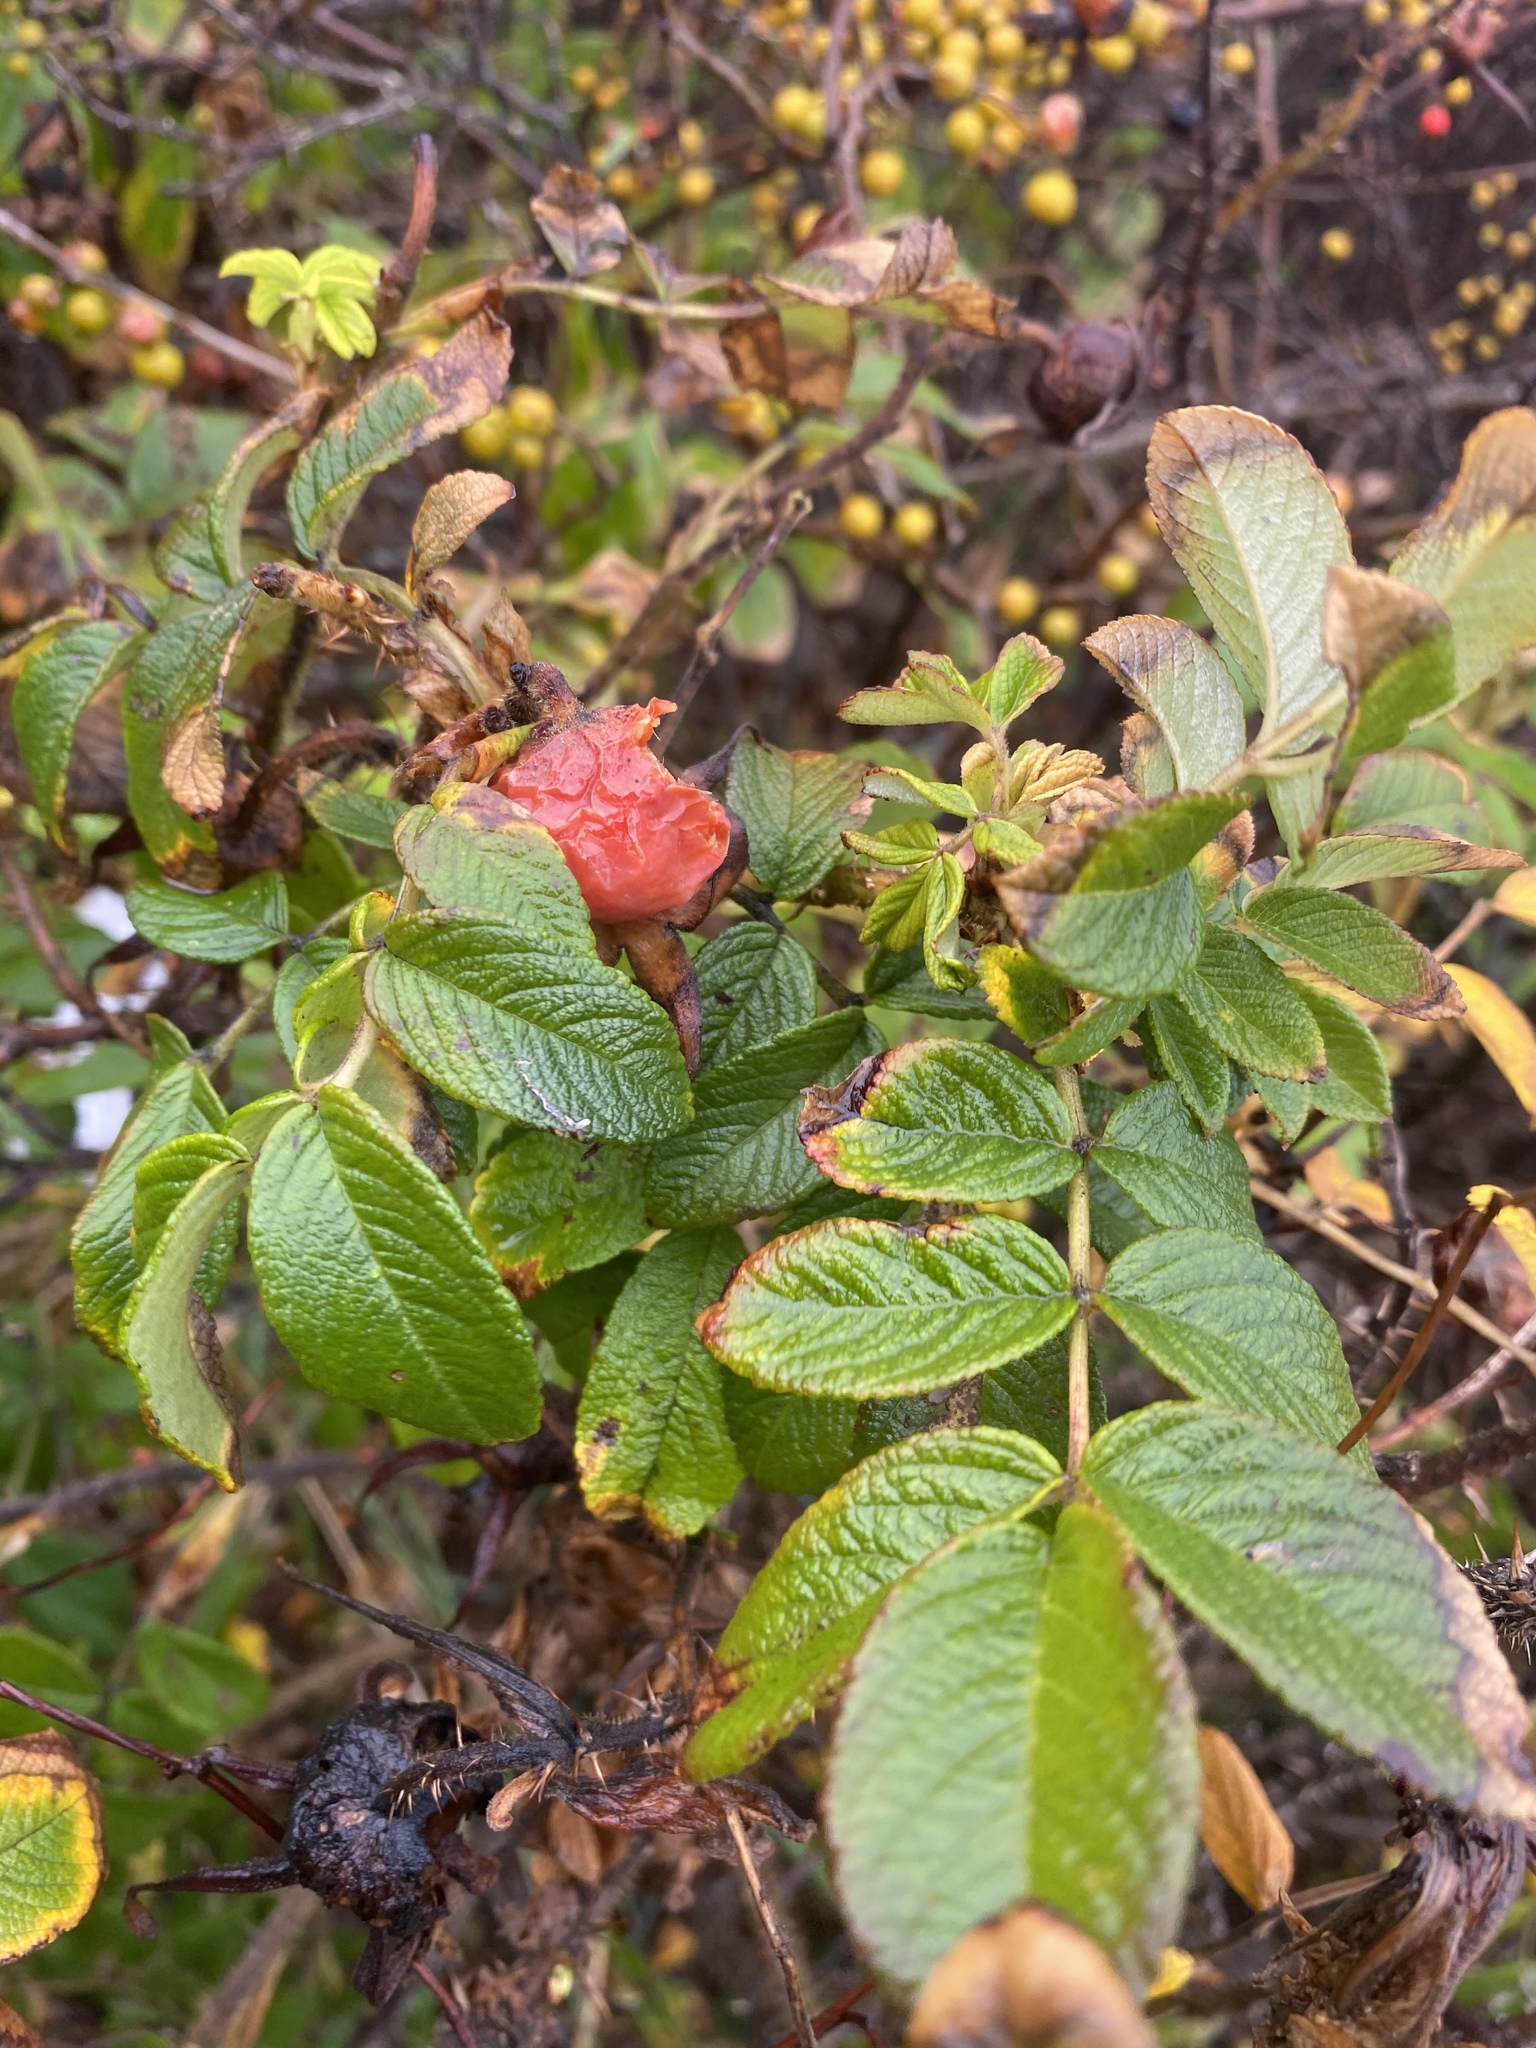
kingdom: Plantae
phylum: Tracheophyta
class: Magnoliopsida
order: Rosales
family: Rosaceae
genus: Rosa
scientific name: Rosa rugosa
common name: Japanese rose
